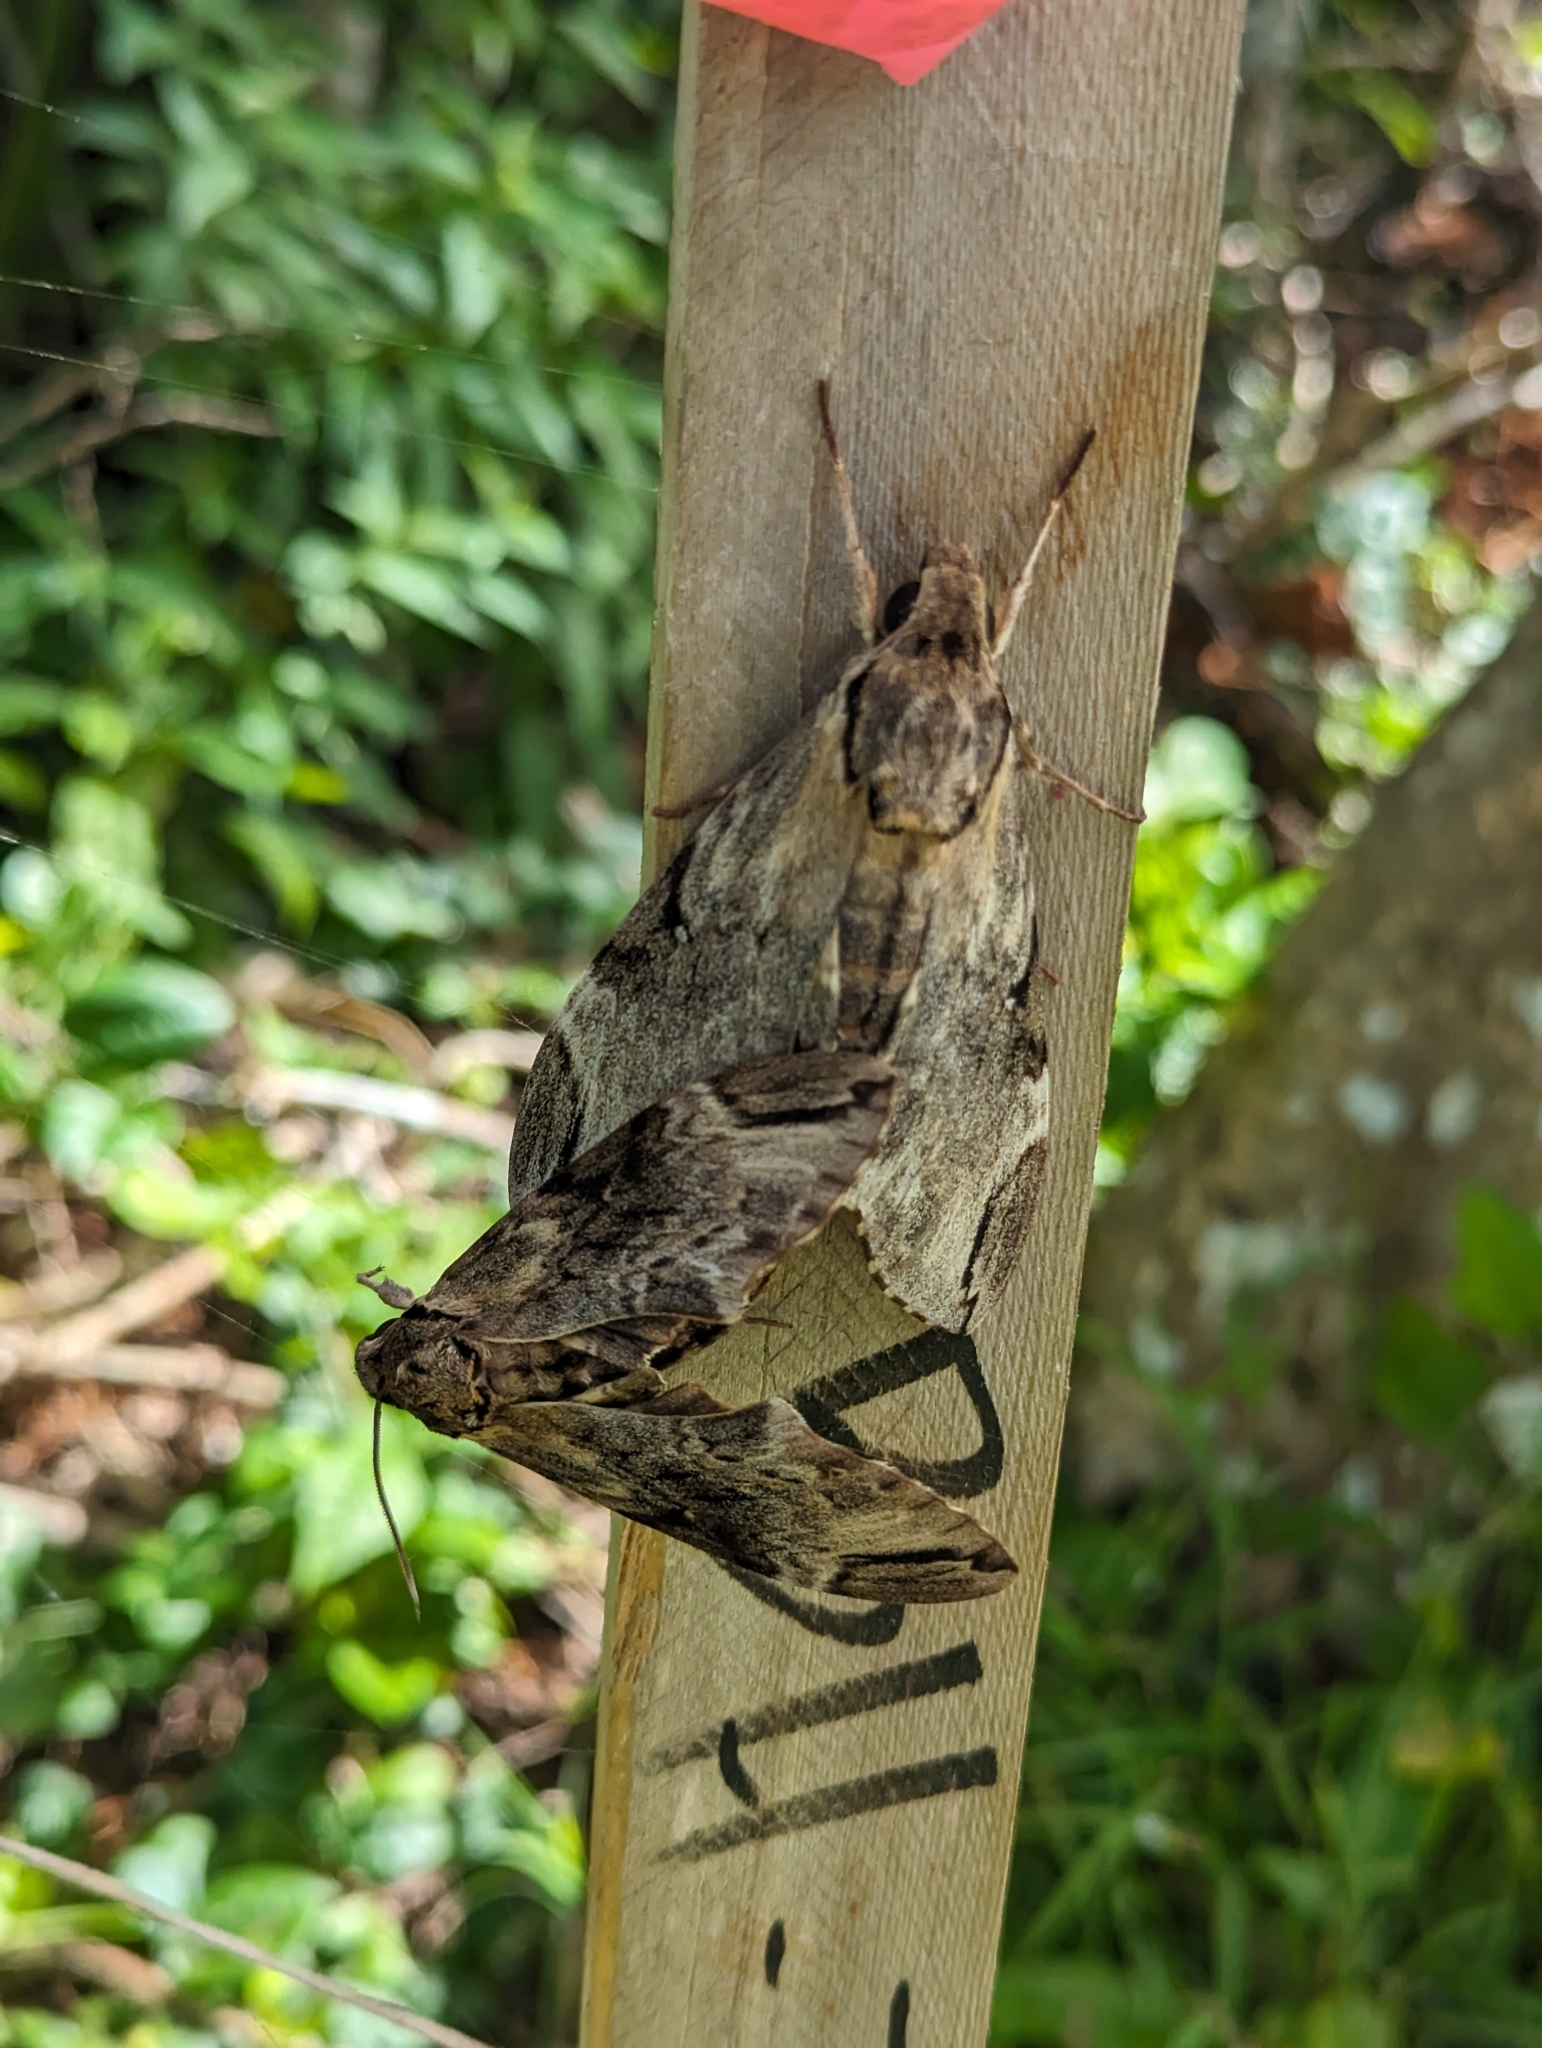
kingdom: Animalia
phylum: Arthropoda
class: Insecta
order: Lepidoptera
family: Sphingidae
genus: Psilogramma
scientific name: Psilogramma increta
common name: Gray hawk moth
